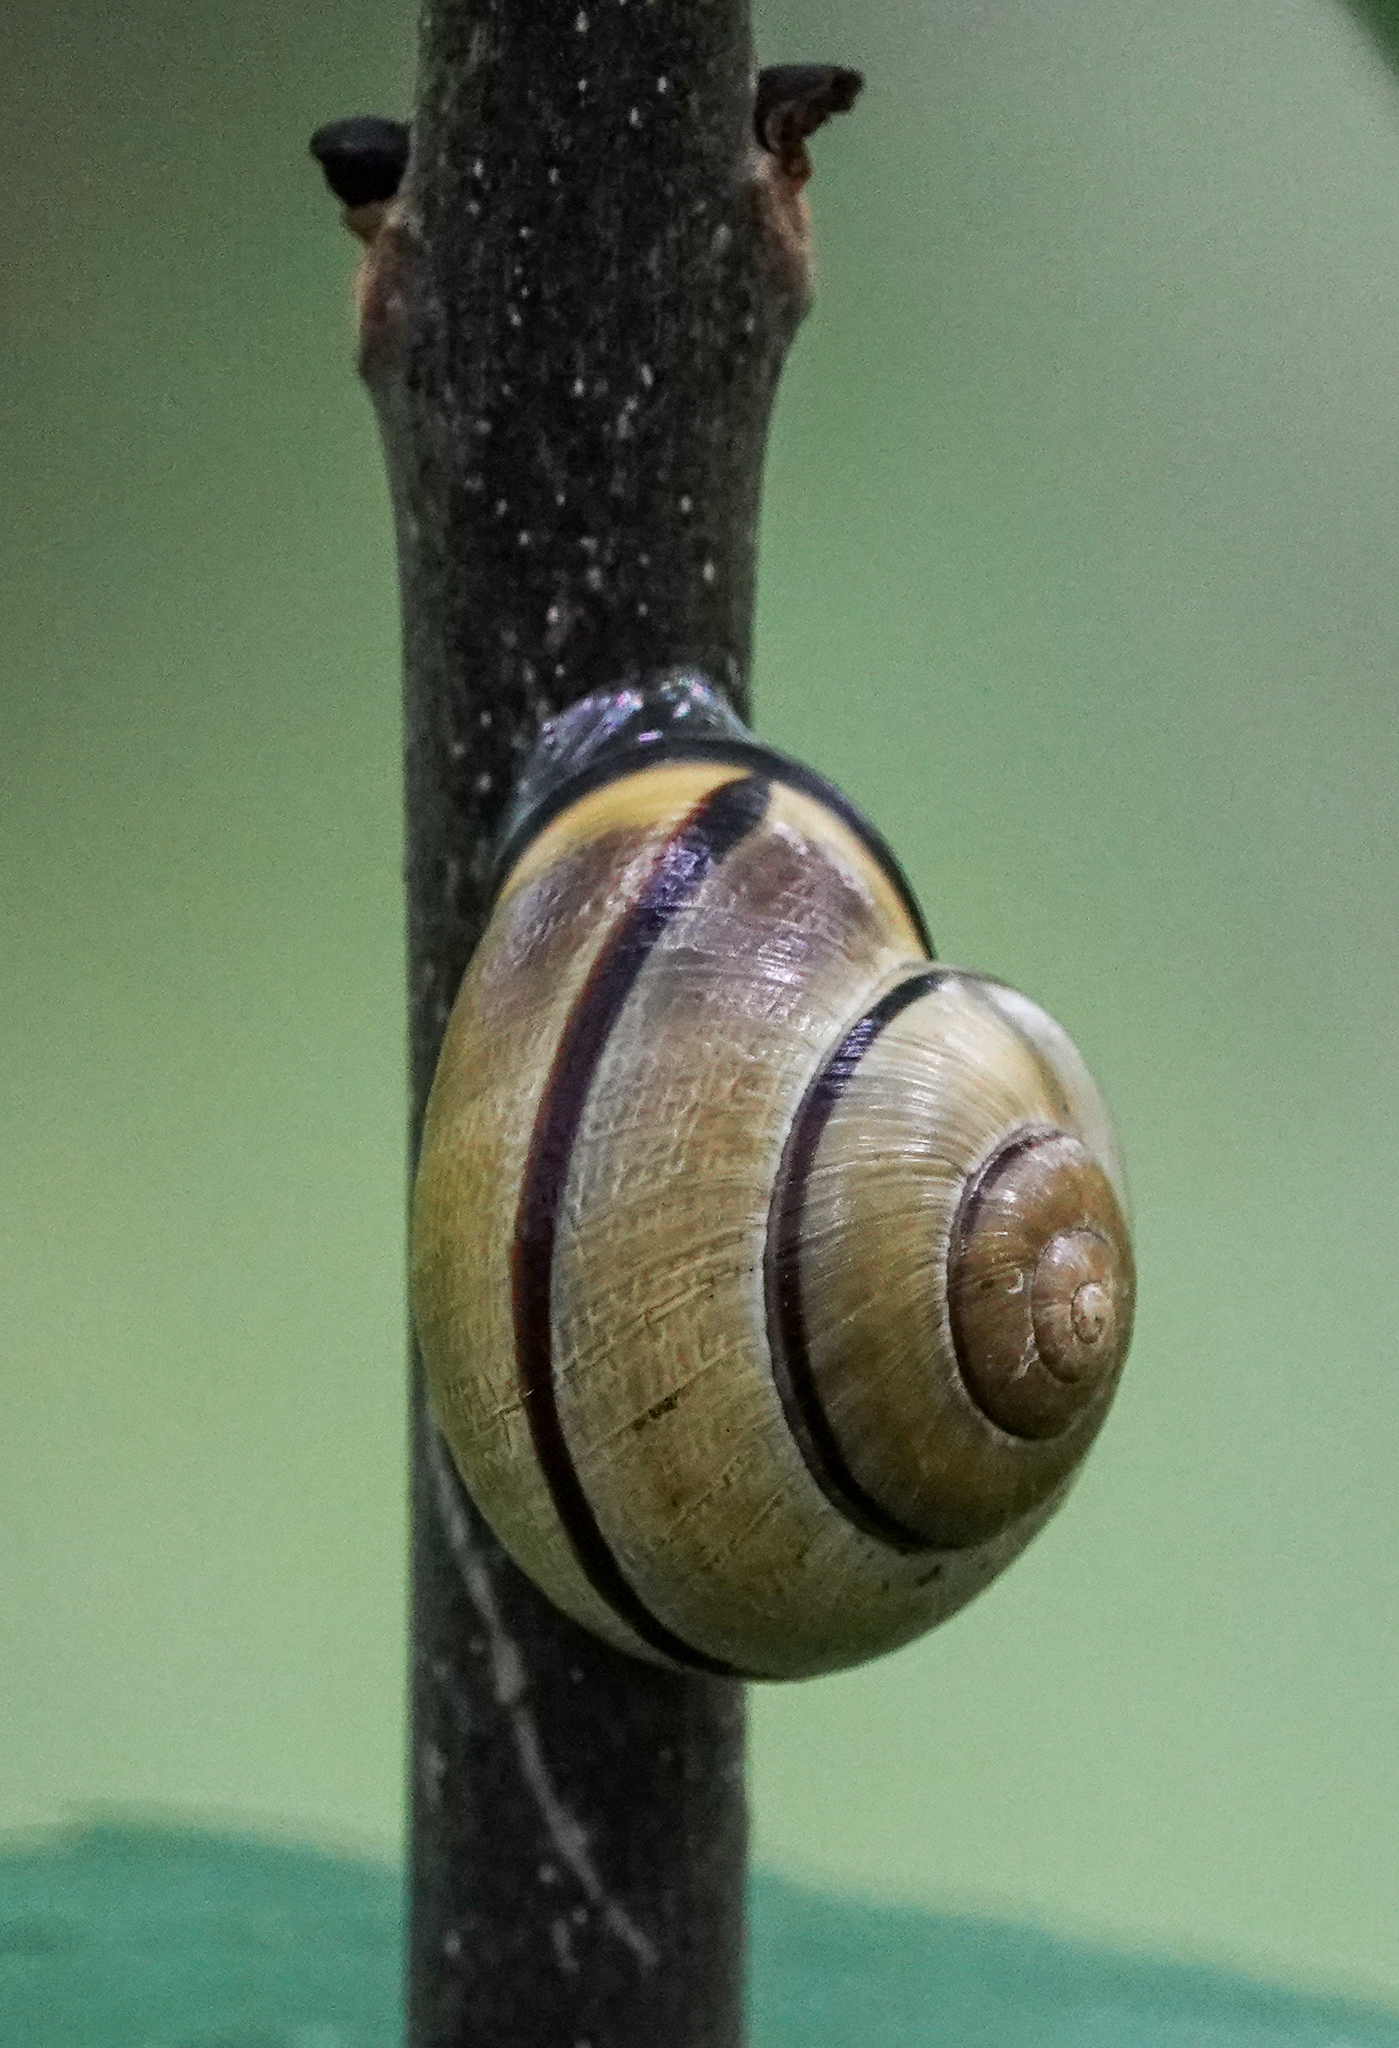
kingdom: Animalia
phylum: Mollusca
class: Gastropoda
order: Stylommatophora
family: Helicidae
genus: Cepaea
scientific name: Cepaea nemoralis
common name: Grovesnail
